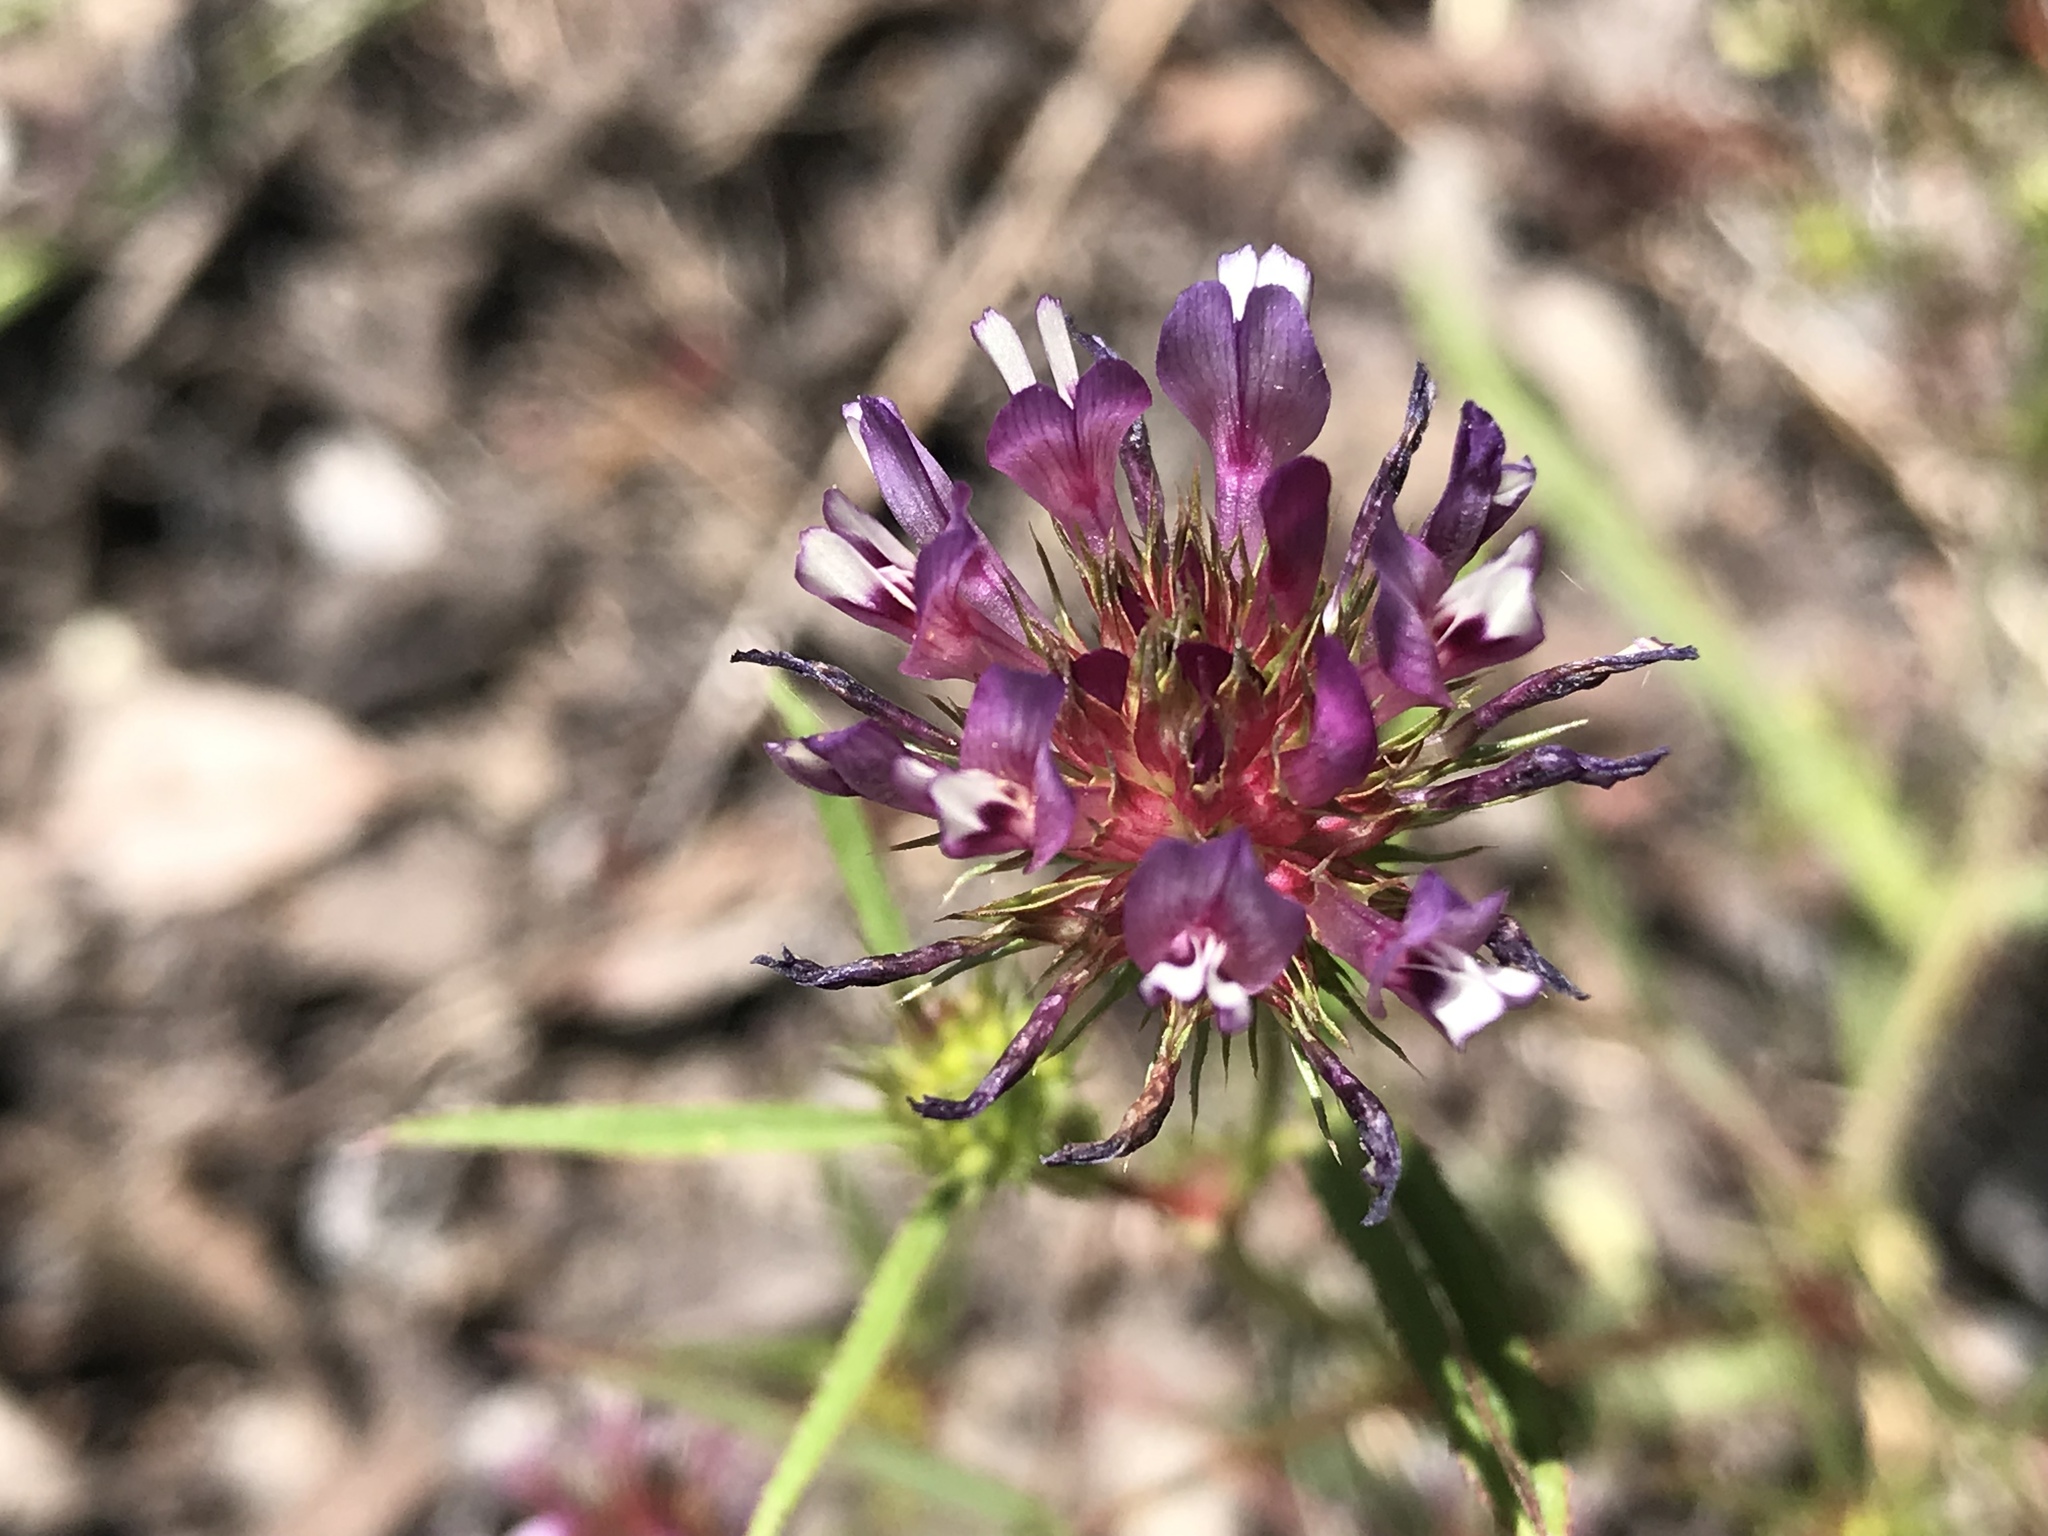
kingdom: Plantae
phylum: Tracheophyta
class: Magnoliopsida
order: Fabales
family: Fabaceae
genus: Trifolium
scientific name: Trifolium willdenovii
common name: Tomcat clover
